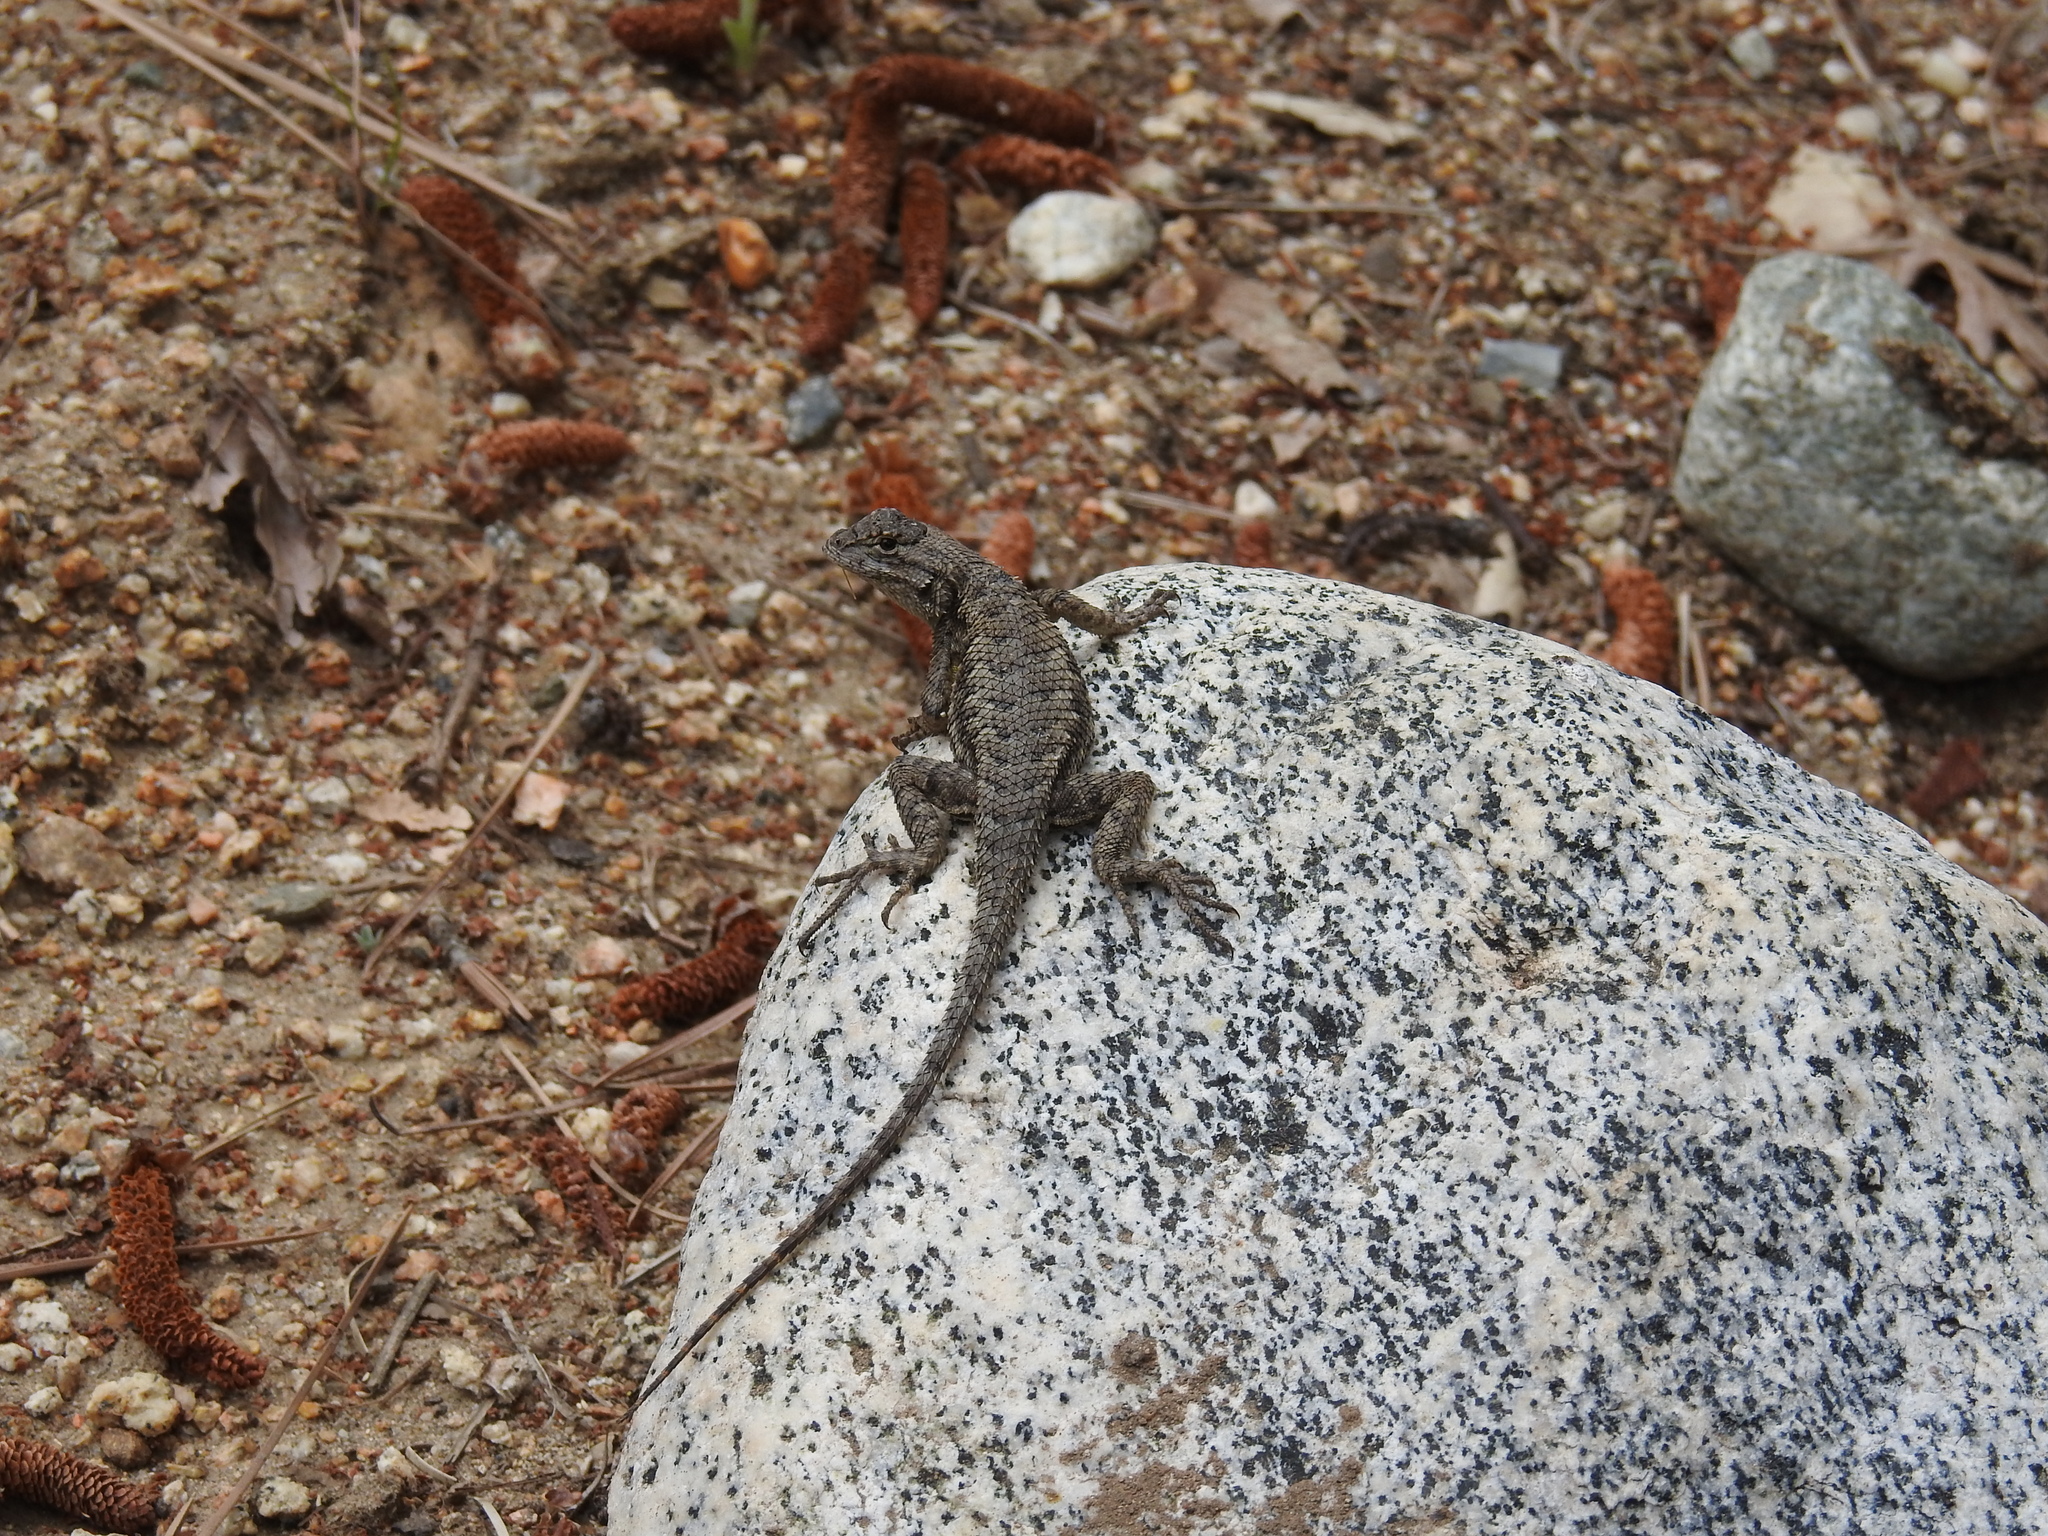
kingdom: Animalia
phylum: Chordata
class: Squamata
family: Phrynosomatidae
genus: Sceloporus
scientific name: Sceloporus occidentalis
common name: Western fence lizard
